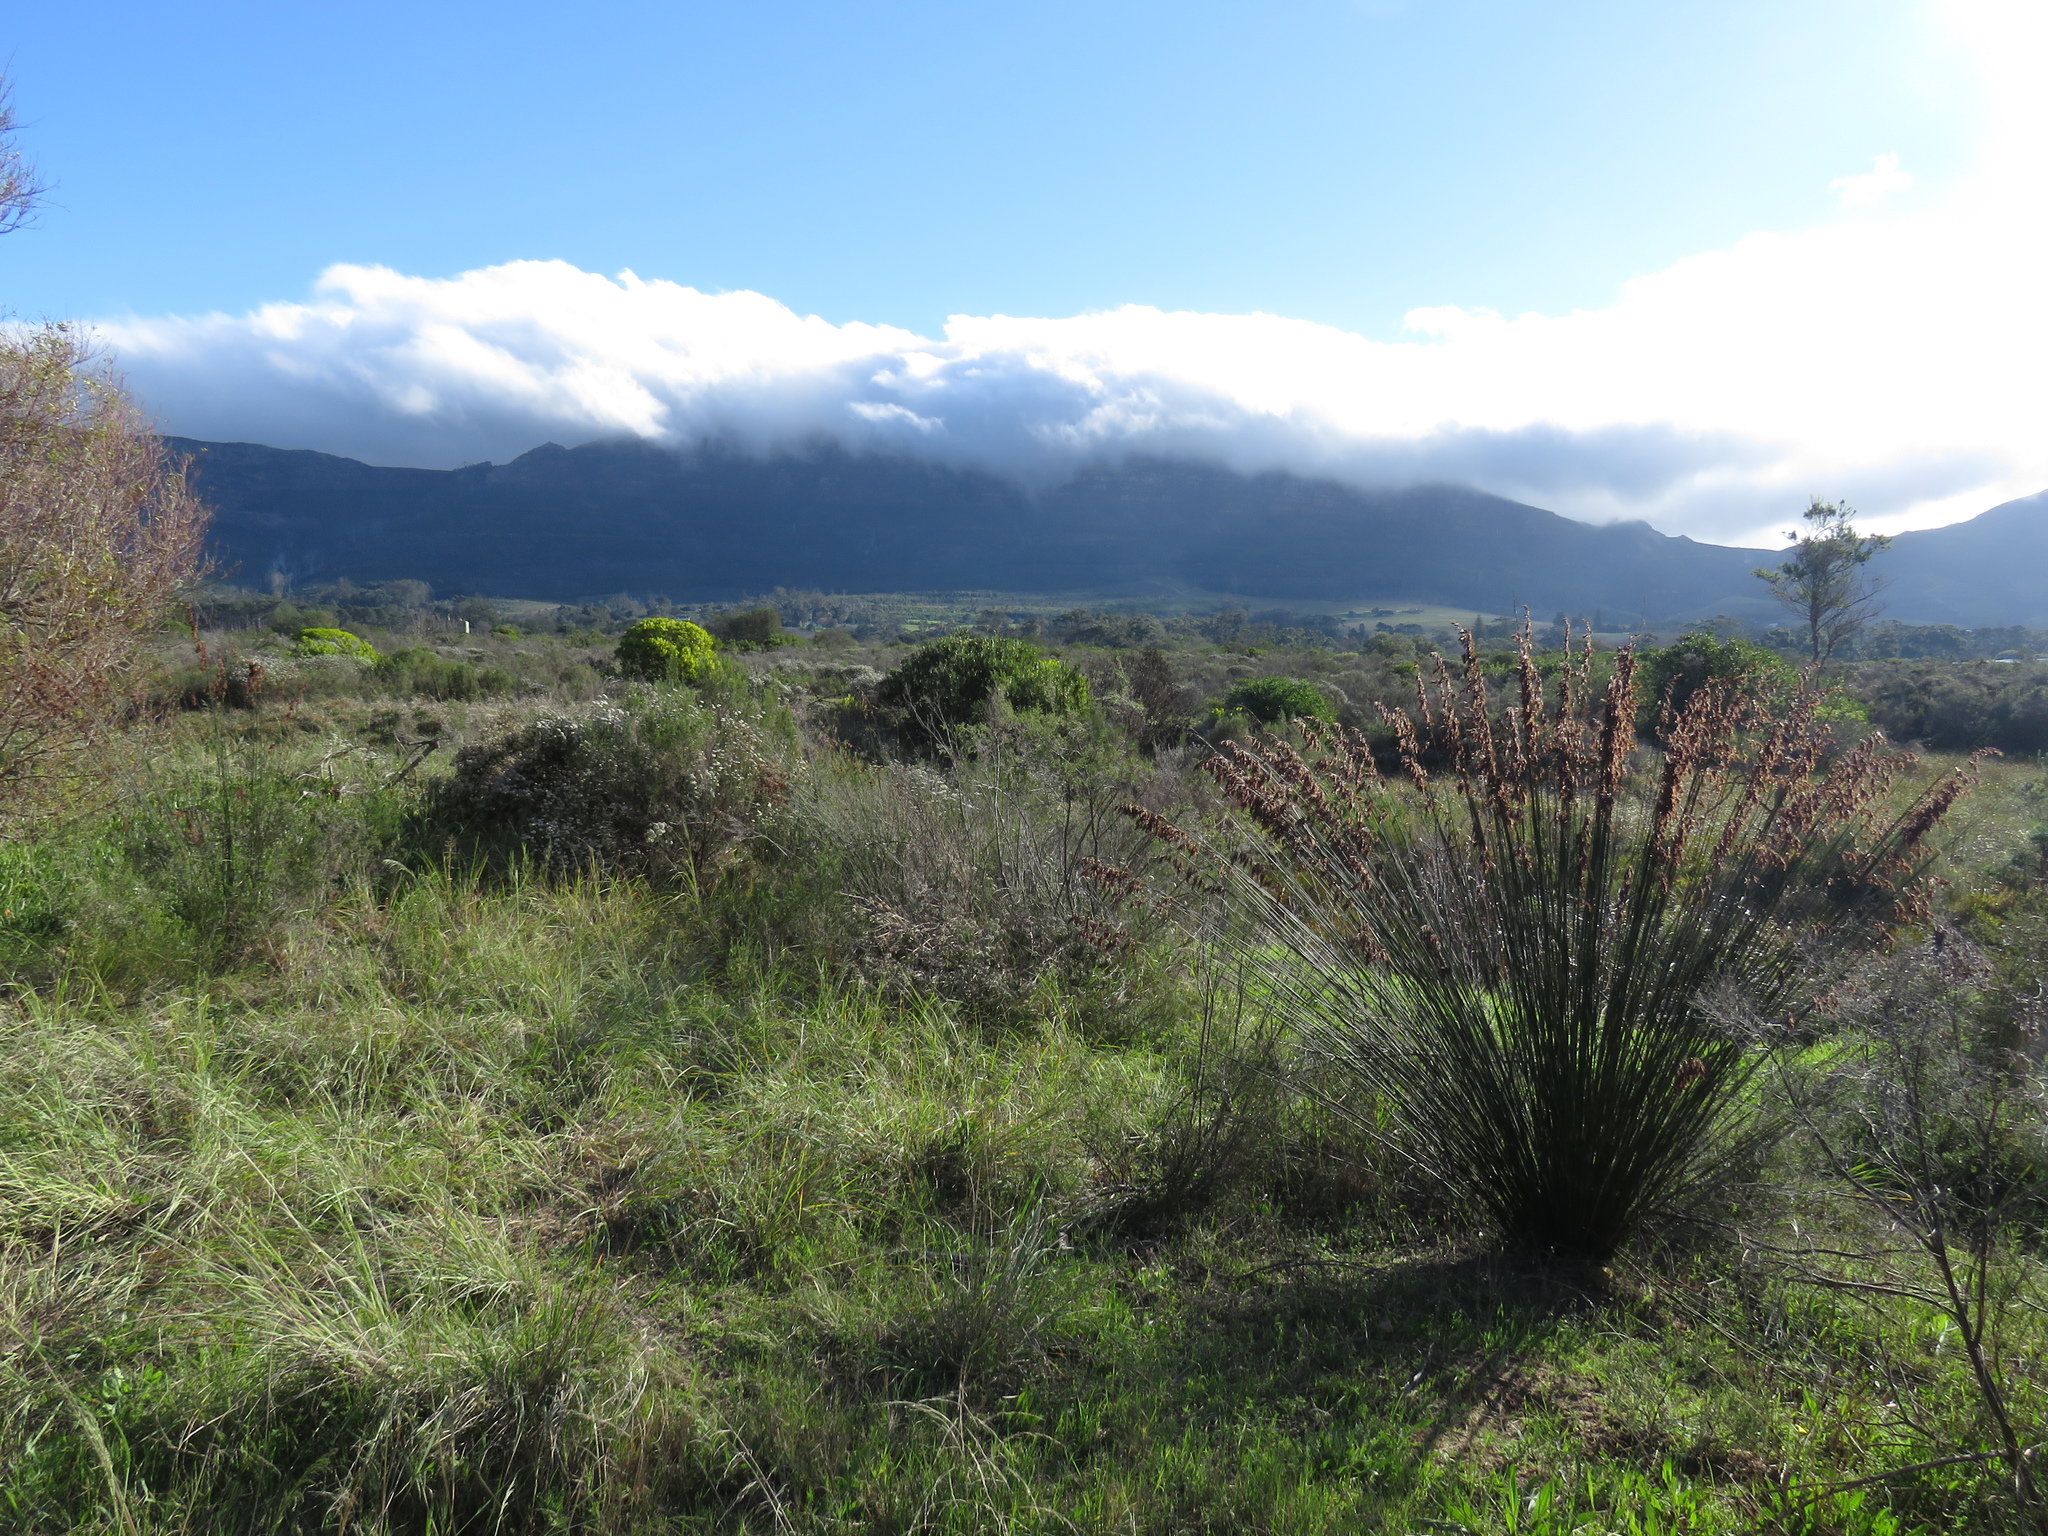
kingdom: Plantae
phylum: Tracheophyta
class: Liliopsida
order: Poales
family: Restionaceae
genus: Thamnochortus
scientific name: Thamnochortus insignis
